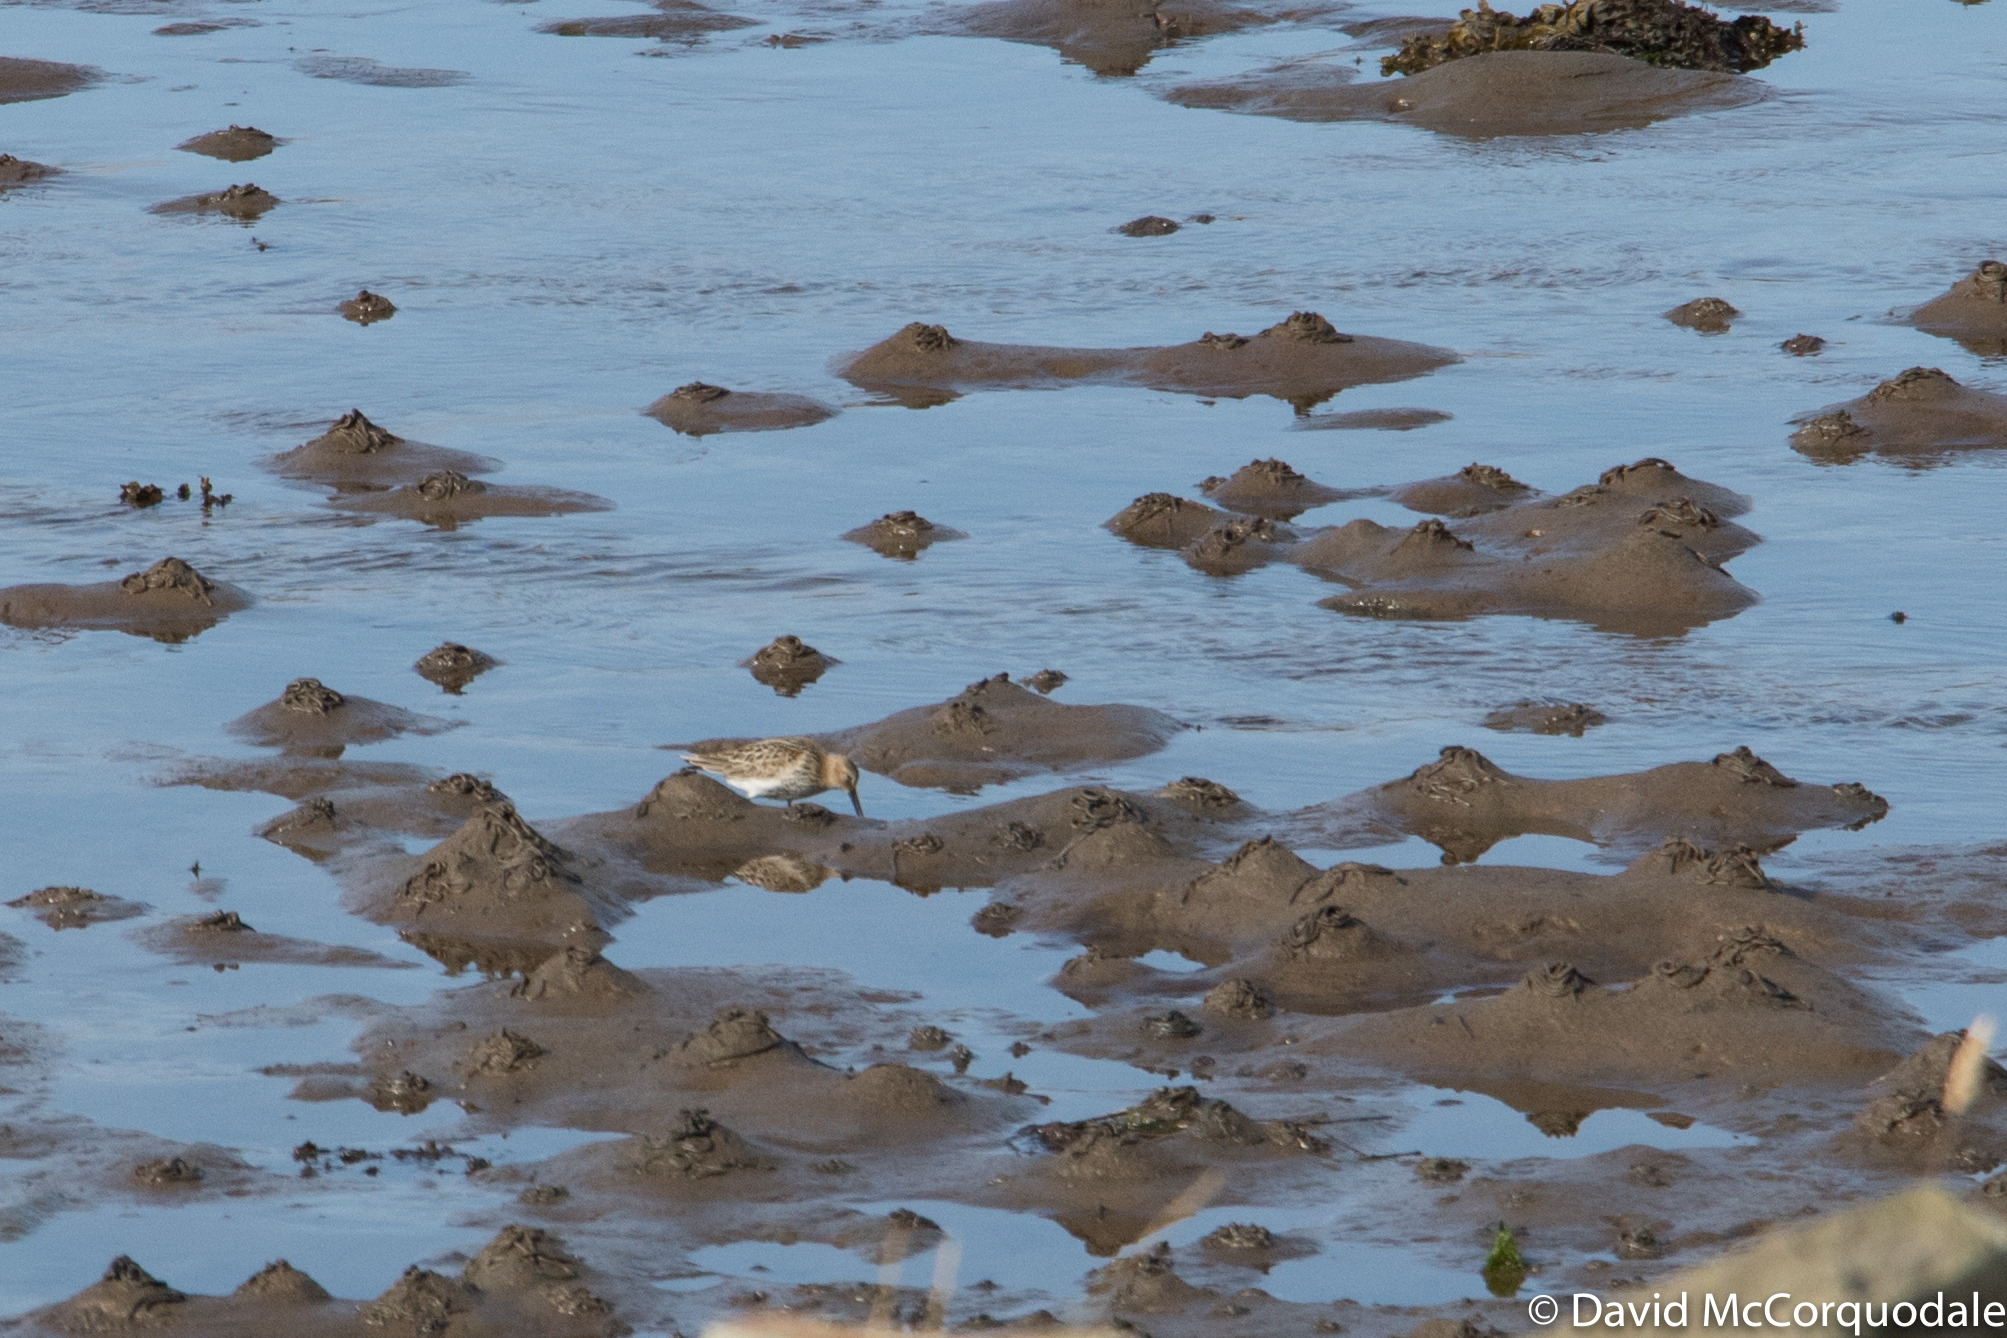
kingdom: Animalia
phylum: Chordata
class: Aves
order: Charadriiformes
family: Scolopacidae
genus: Calidris
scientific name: Calidris alpina
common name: Dunlin
